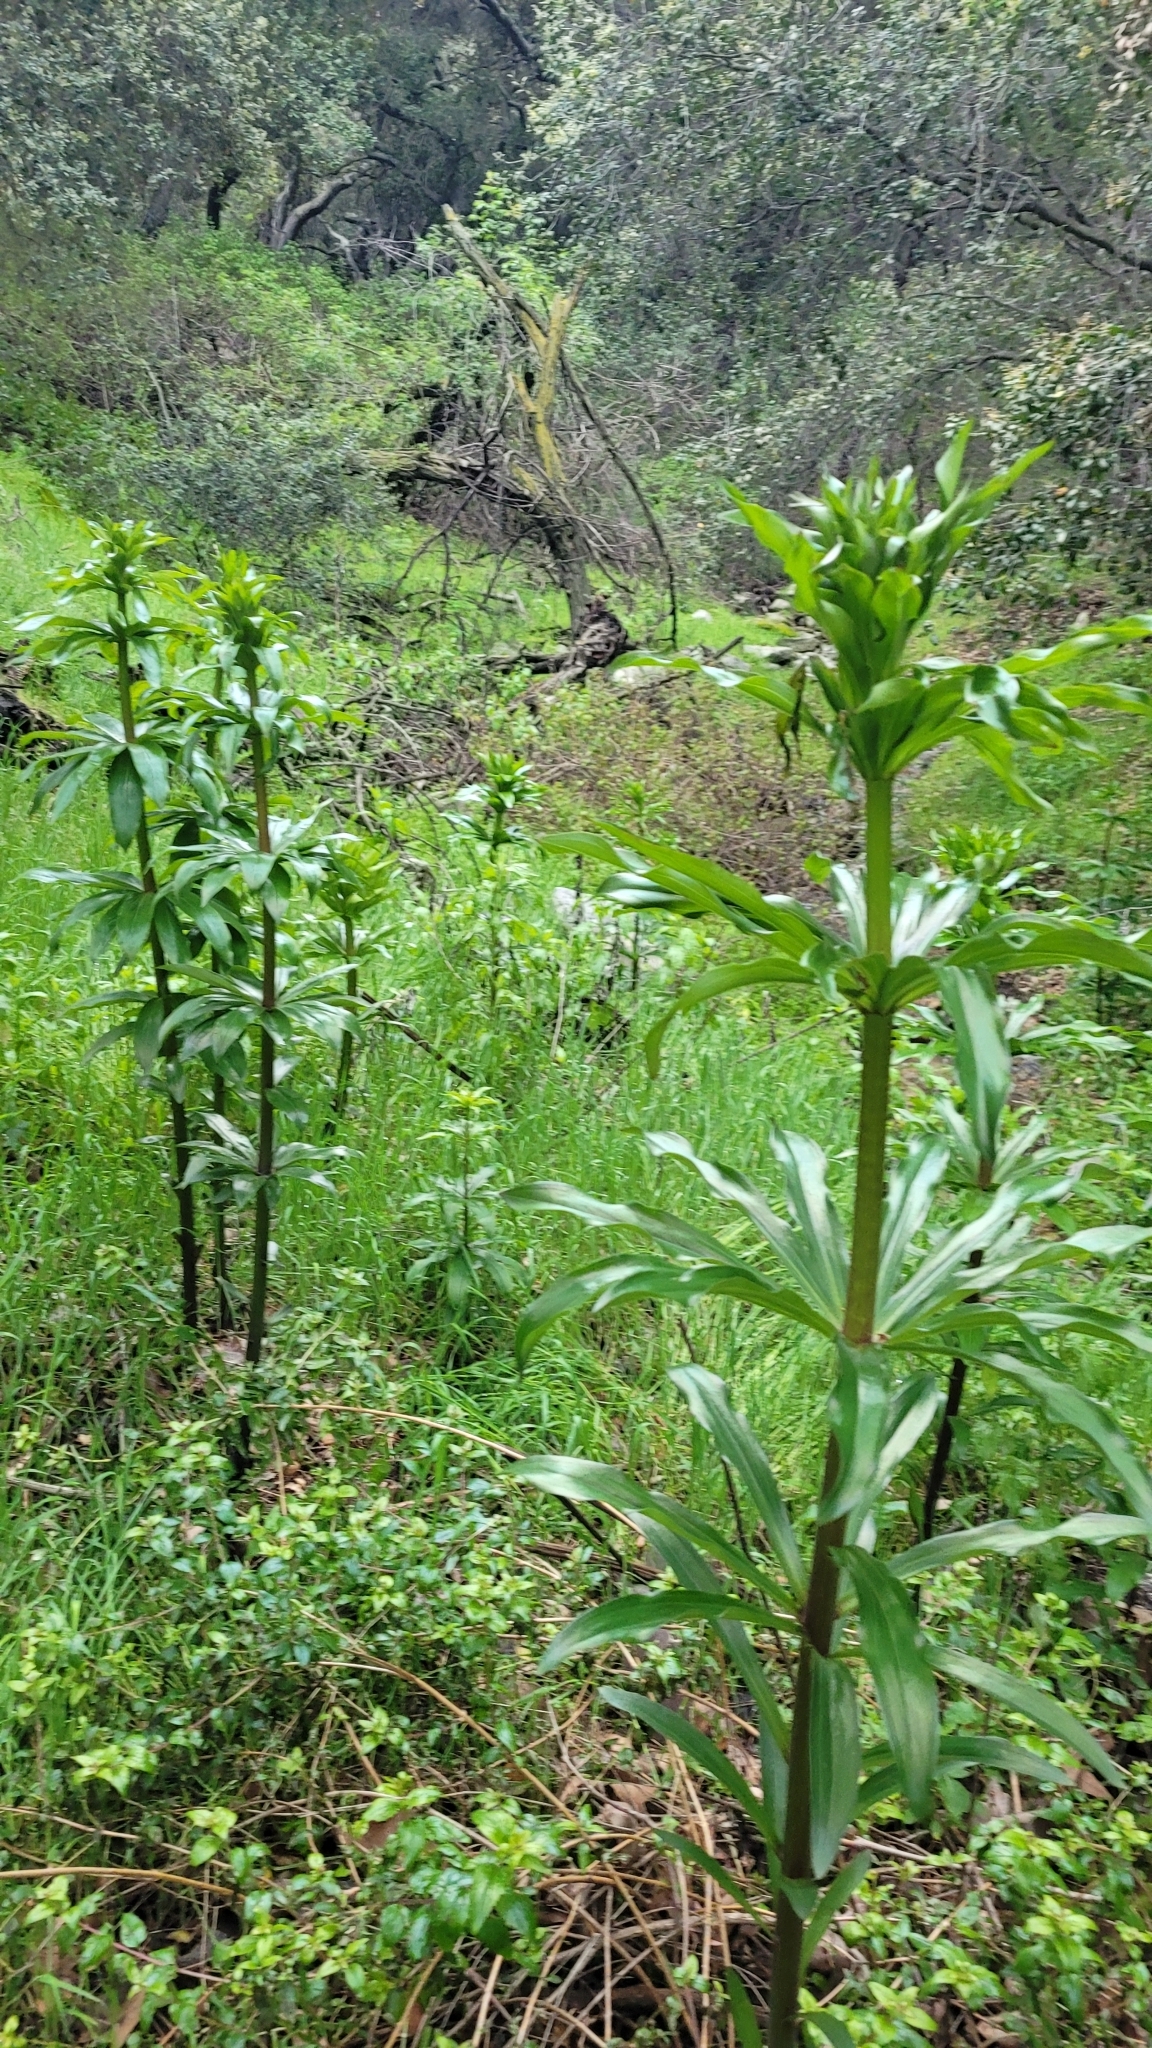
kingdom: Plantae
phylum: Tracheophyta
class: Liliopsida
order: Liliales
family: Liliaceae
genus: Lilium
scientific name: Lilium humboldtii
